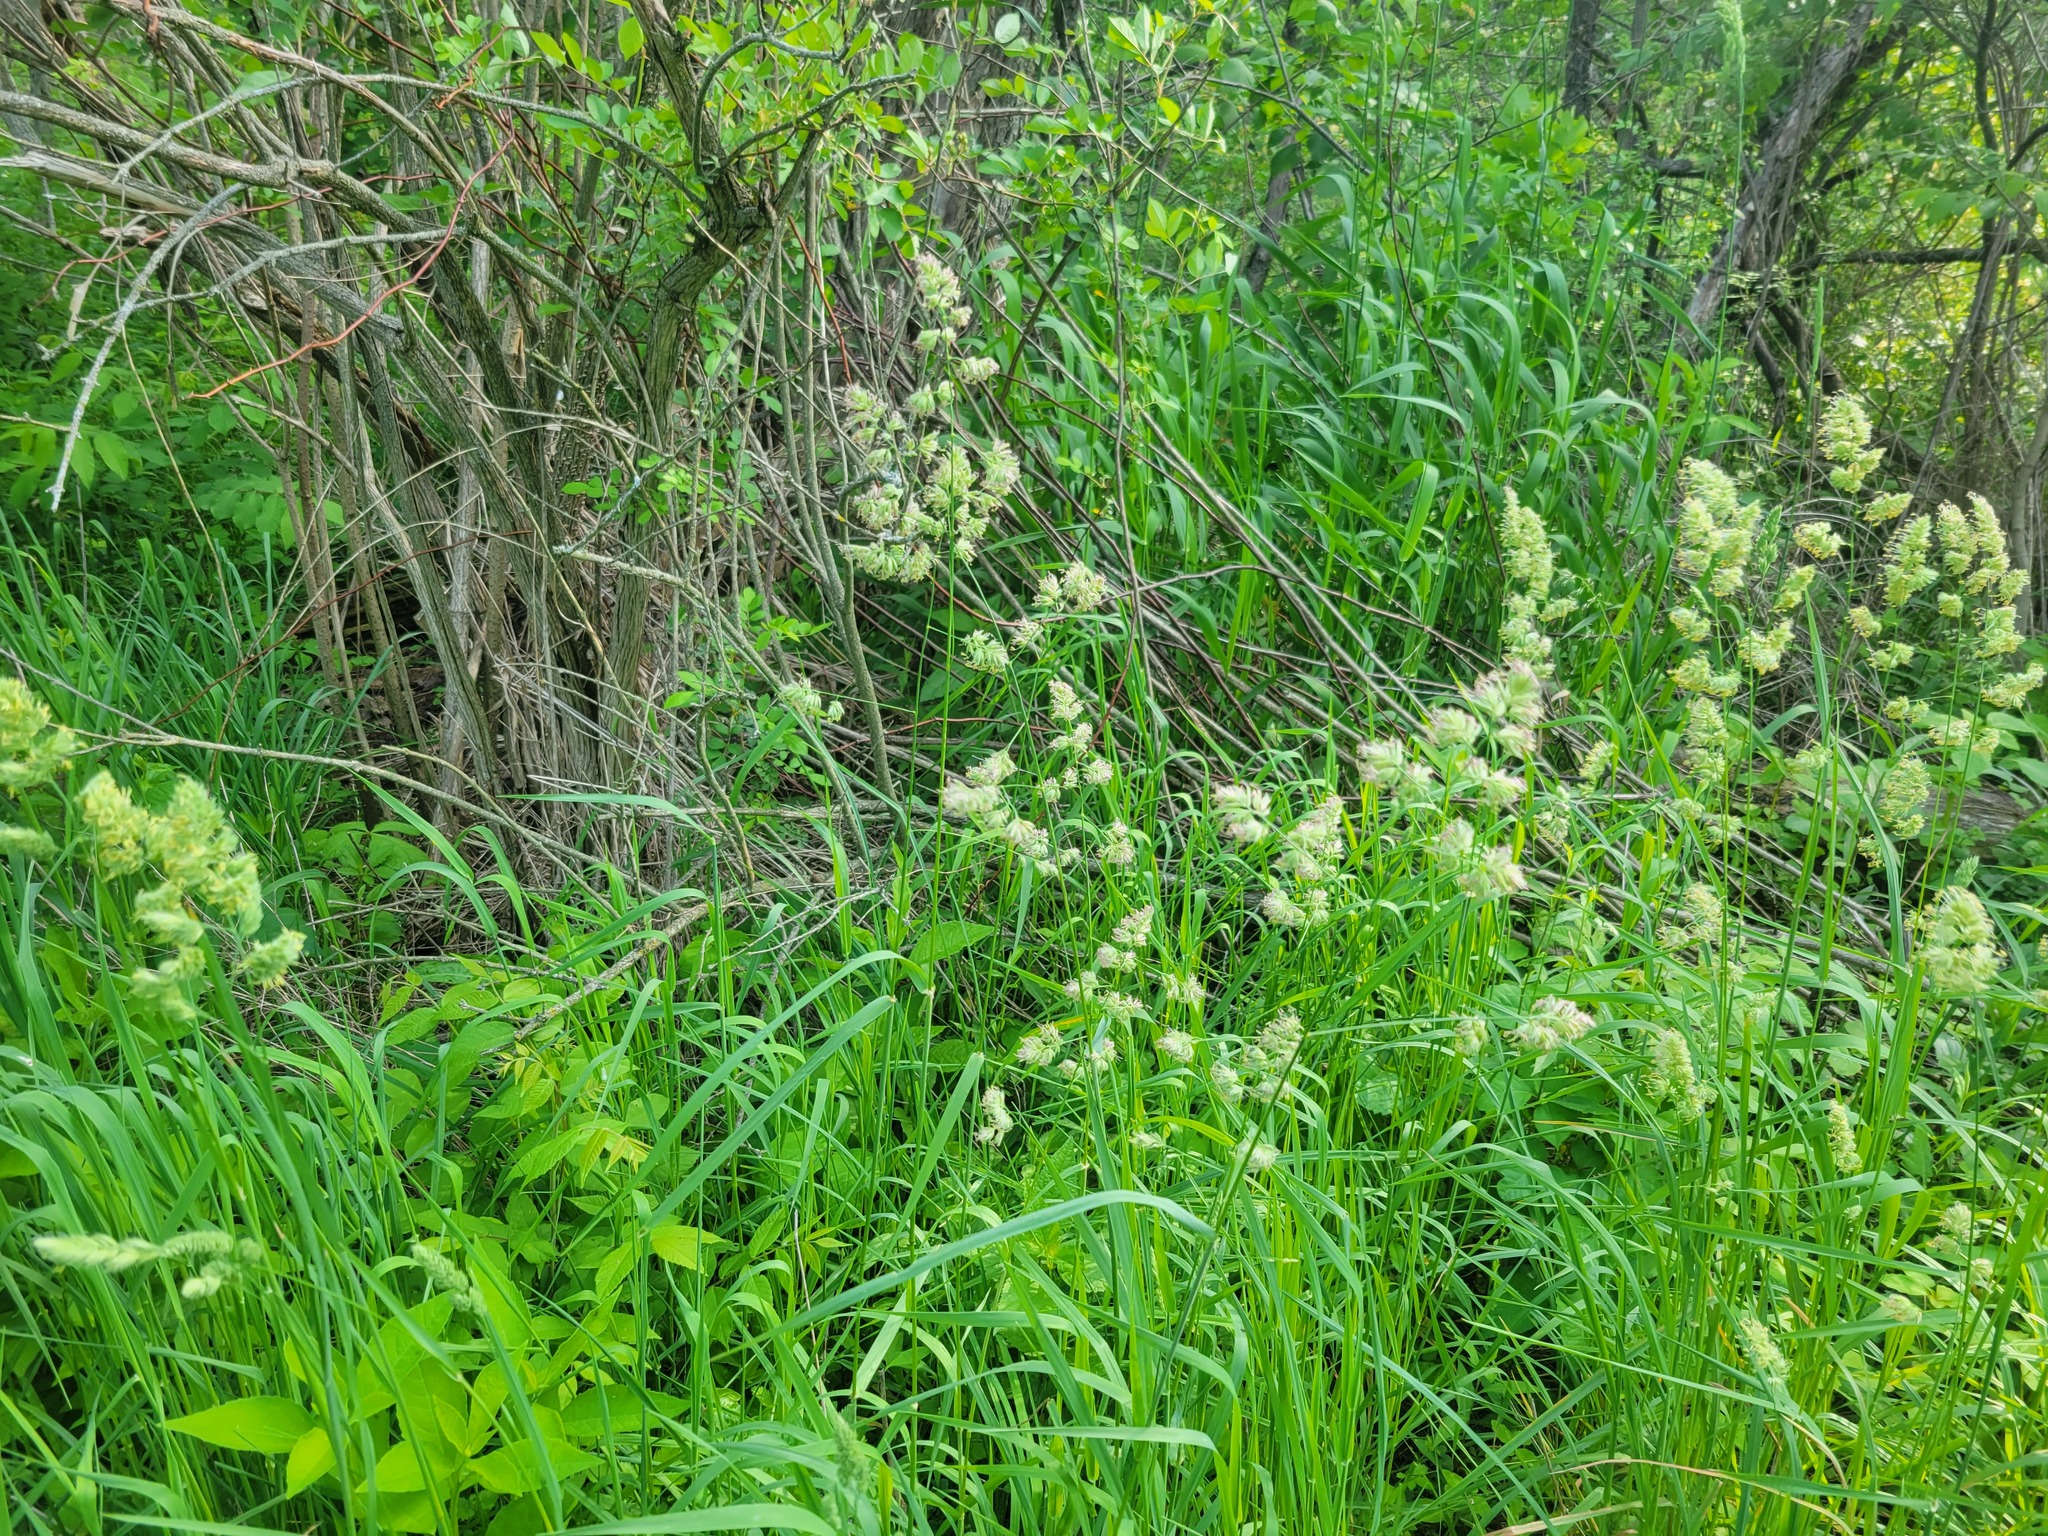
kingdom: Plantae
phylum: Tracheophyta
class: Liliopsida
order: Poales
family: Poaceae
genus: Dactylis
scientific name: Dactylis glomerata
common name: Orchardgrass
